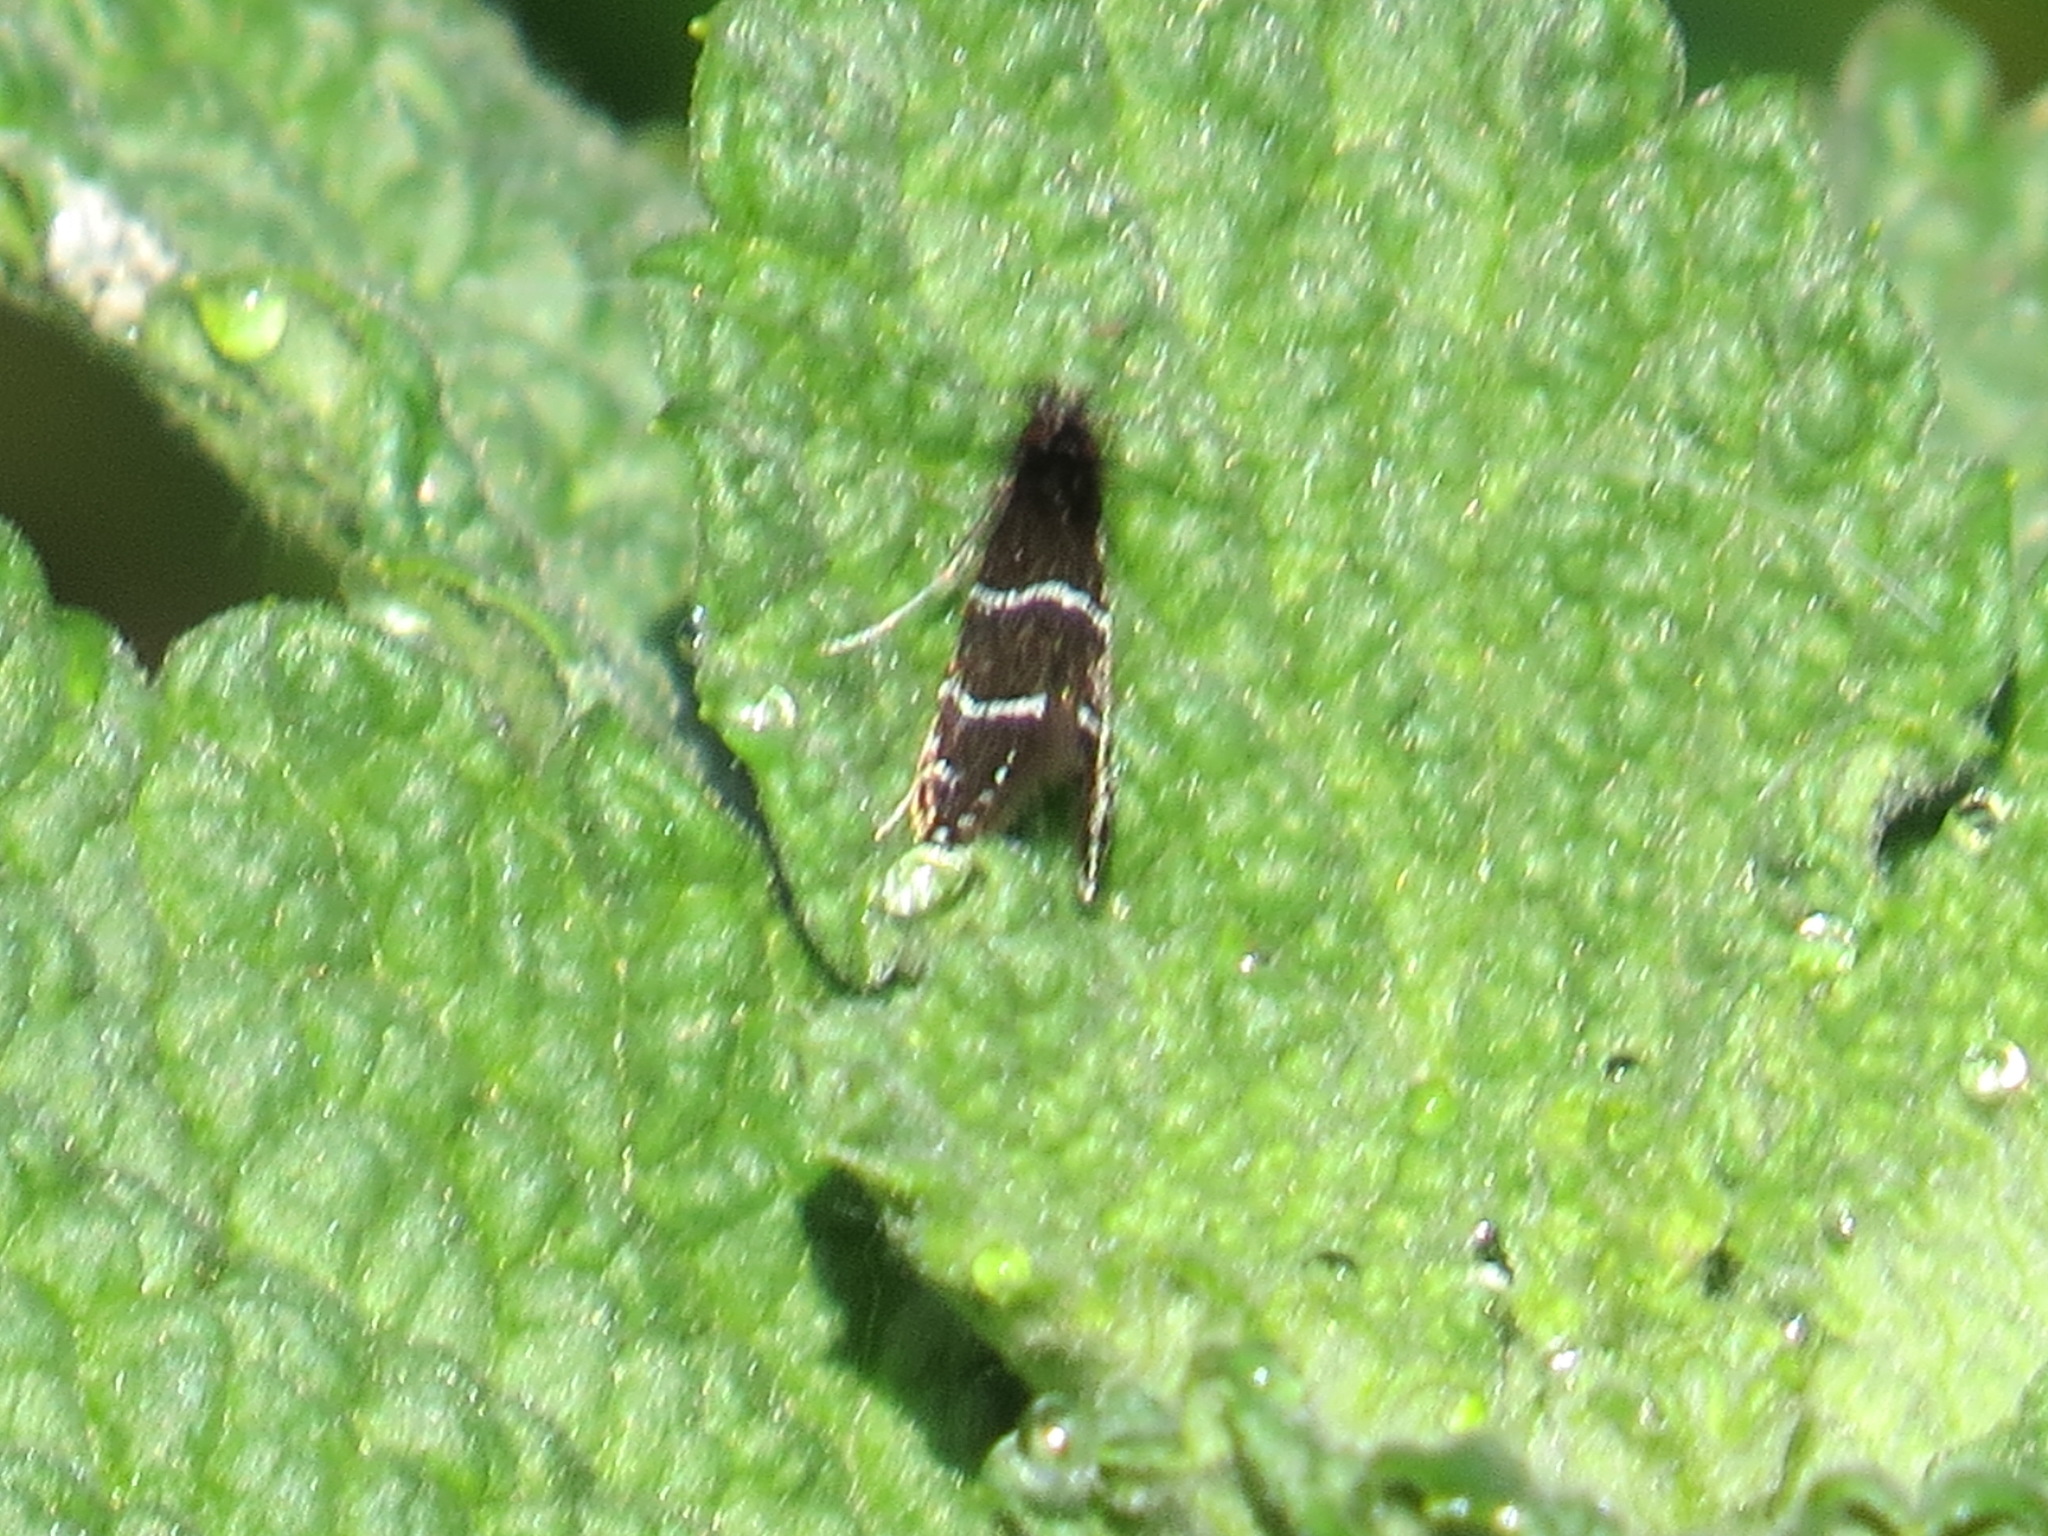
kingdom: Animalia
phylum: Arthropoda
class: Insecta
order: Lepidoptera
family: Adelidae
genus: Adela
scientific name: Adela septentrionella
